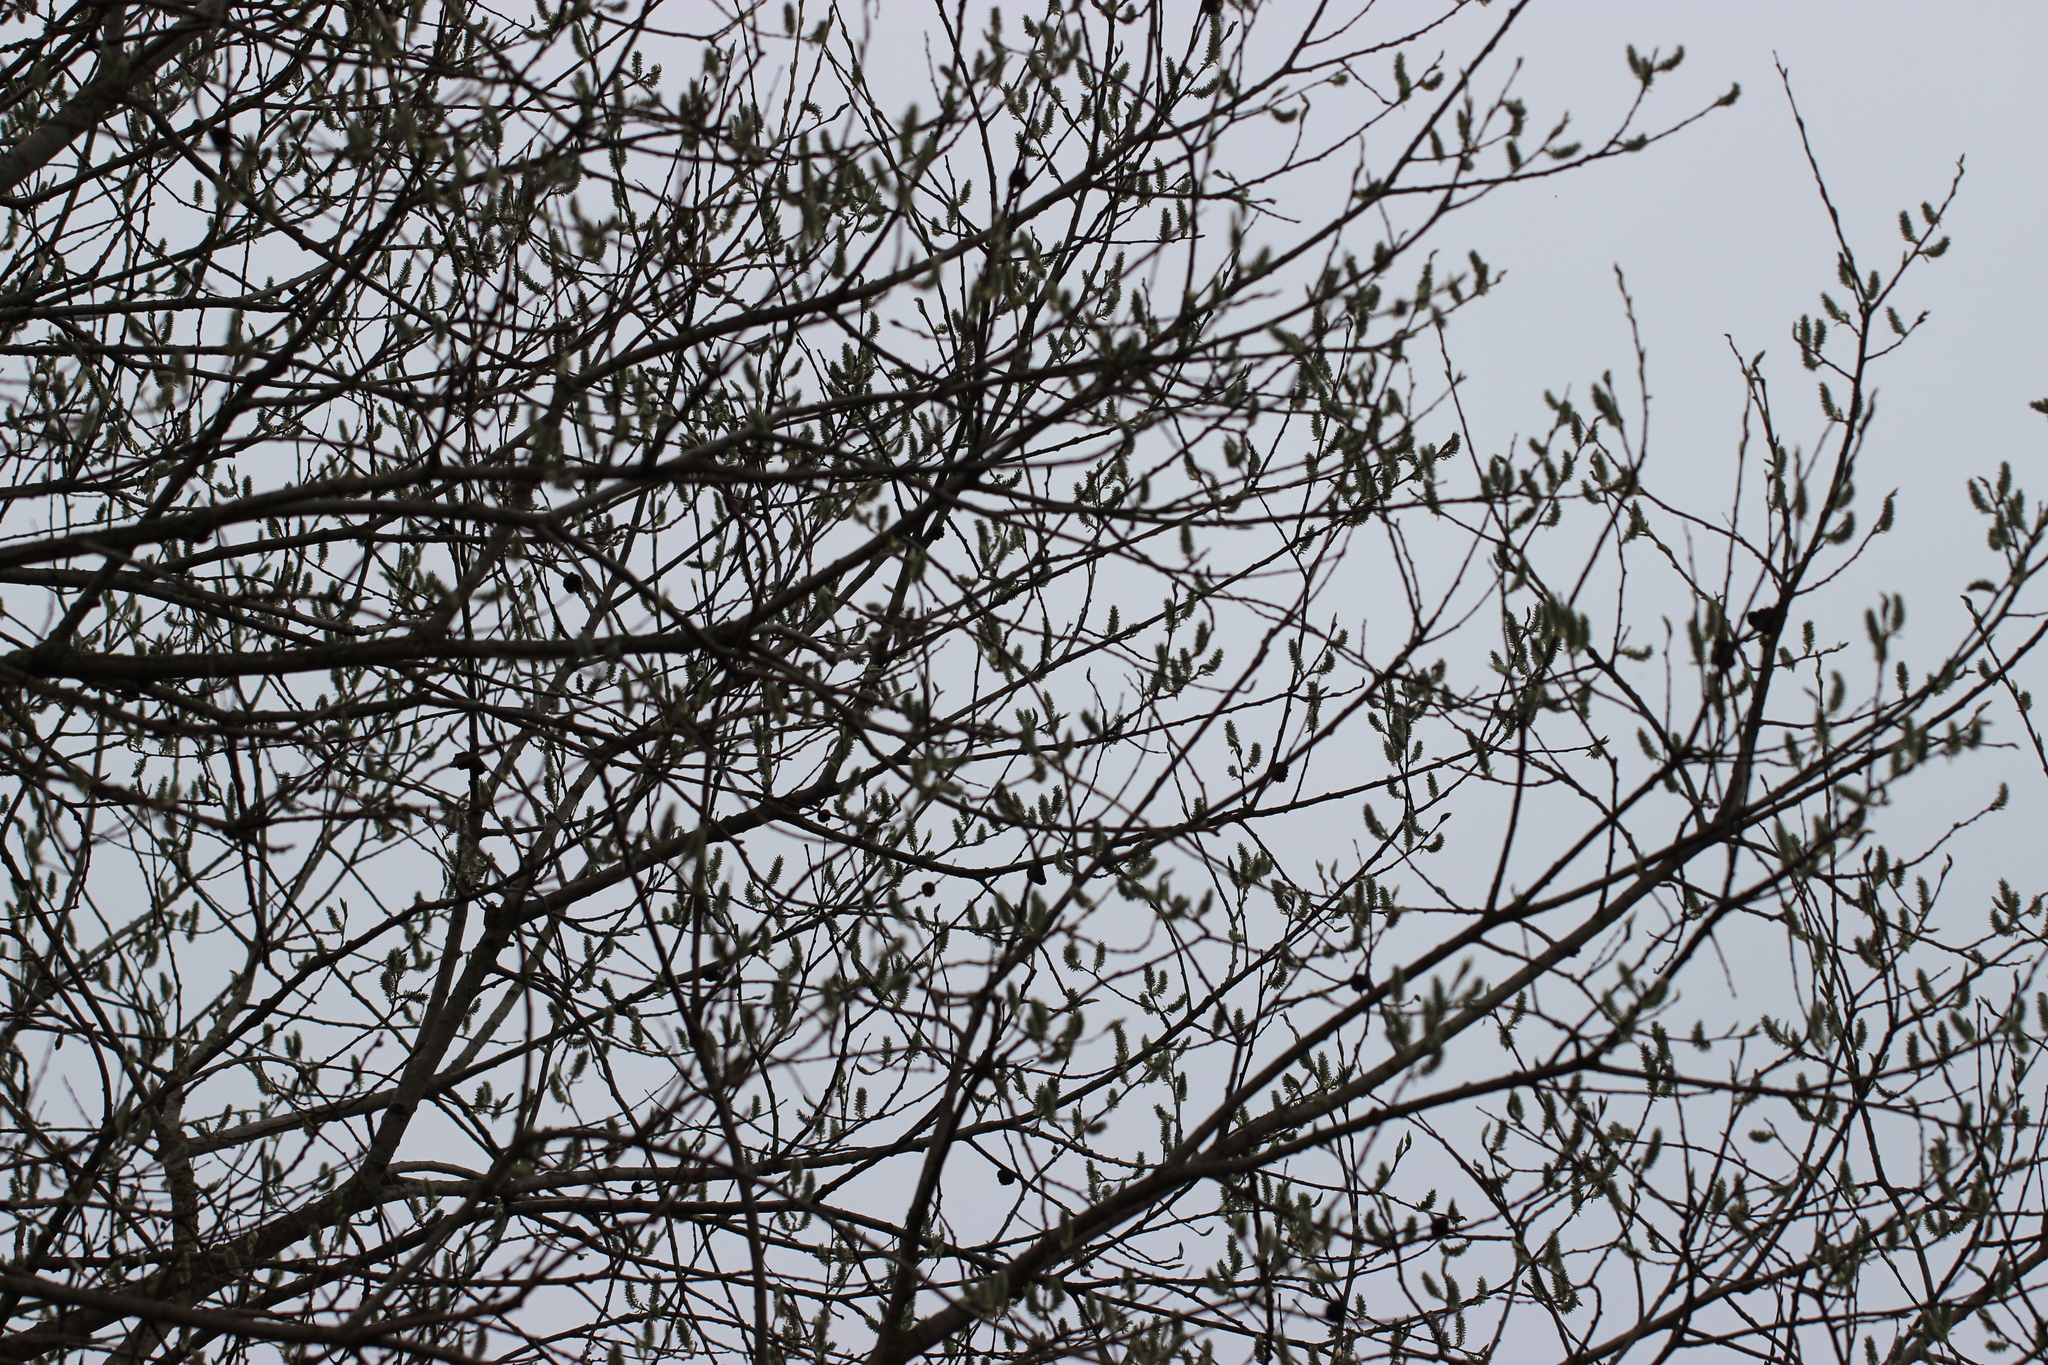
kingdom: Plantae
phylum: Tracheophyta
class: Magnoliopsida
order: Malpighiales
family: Salicaceae
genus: Salix
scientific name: Salix caprea
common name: Goat willow
